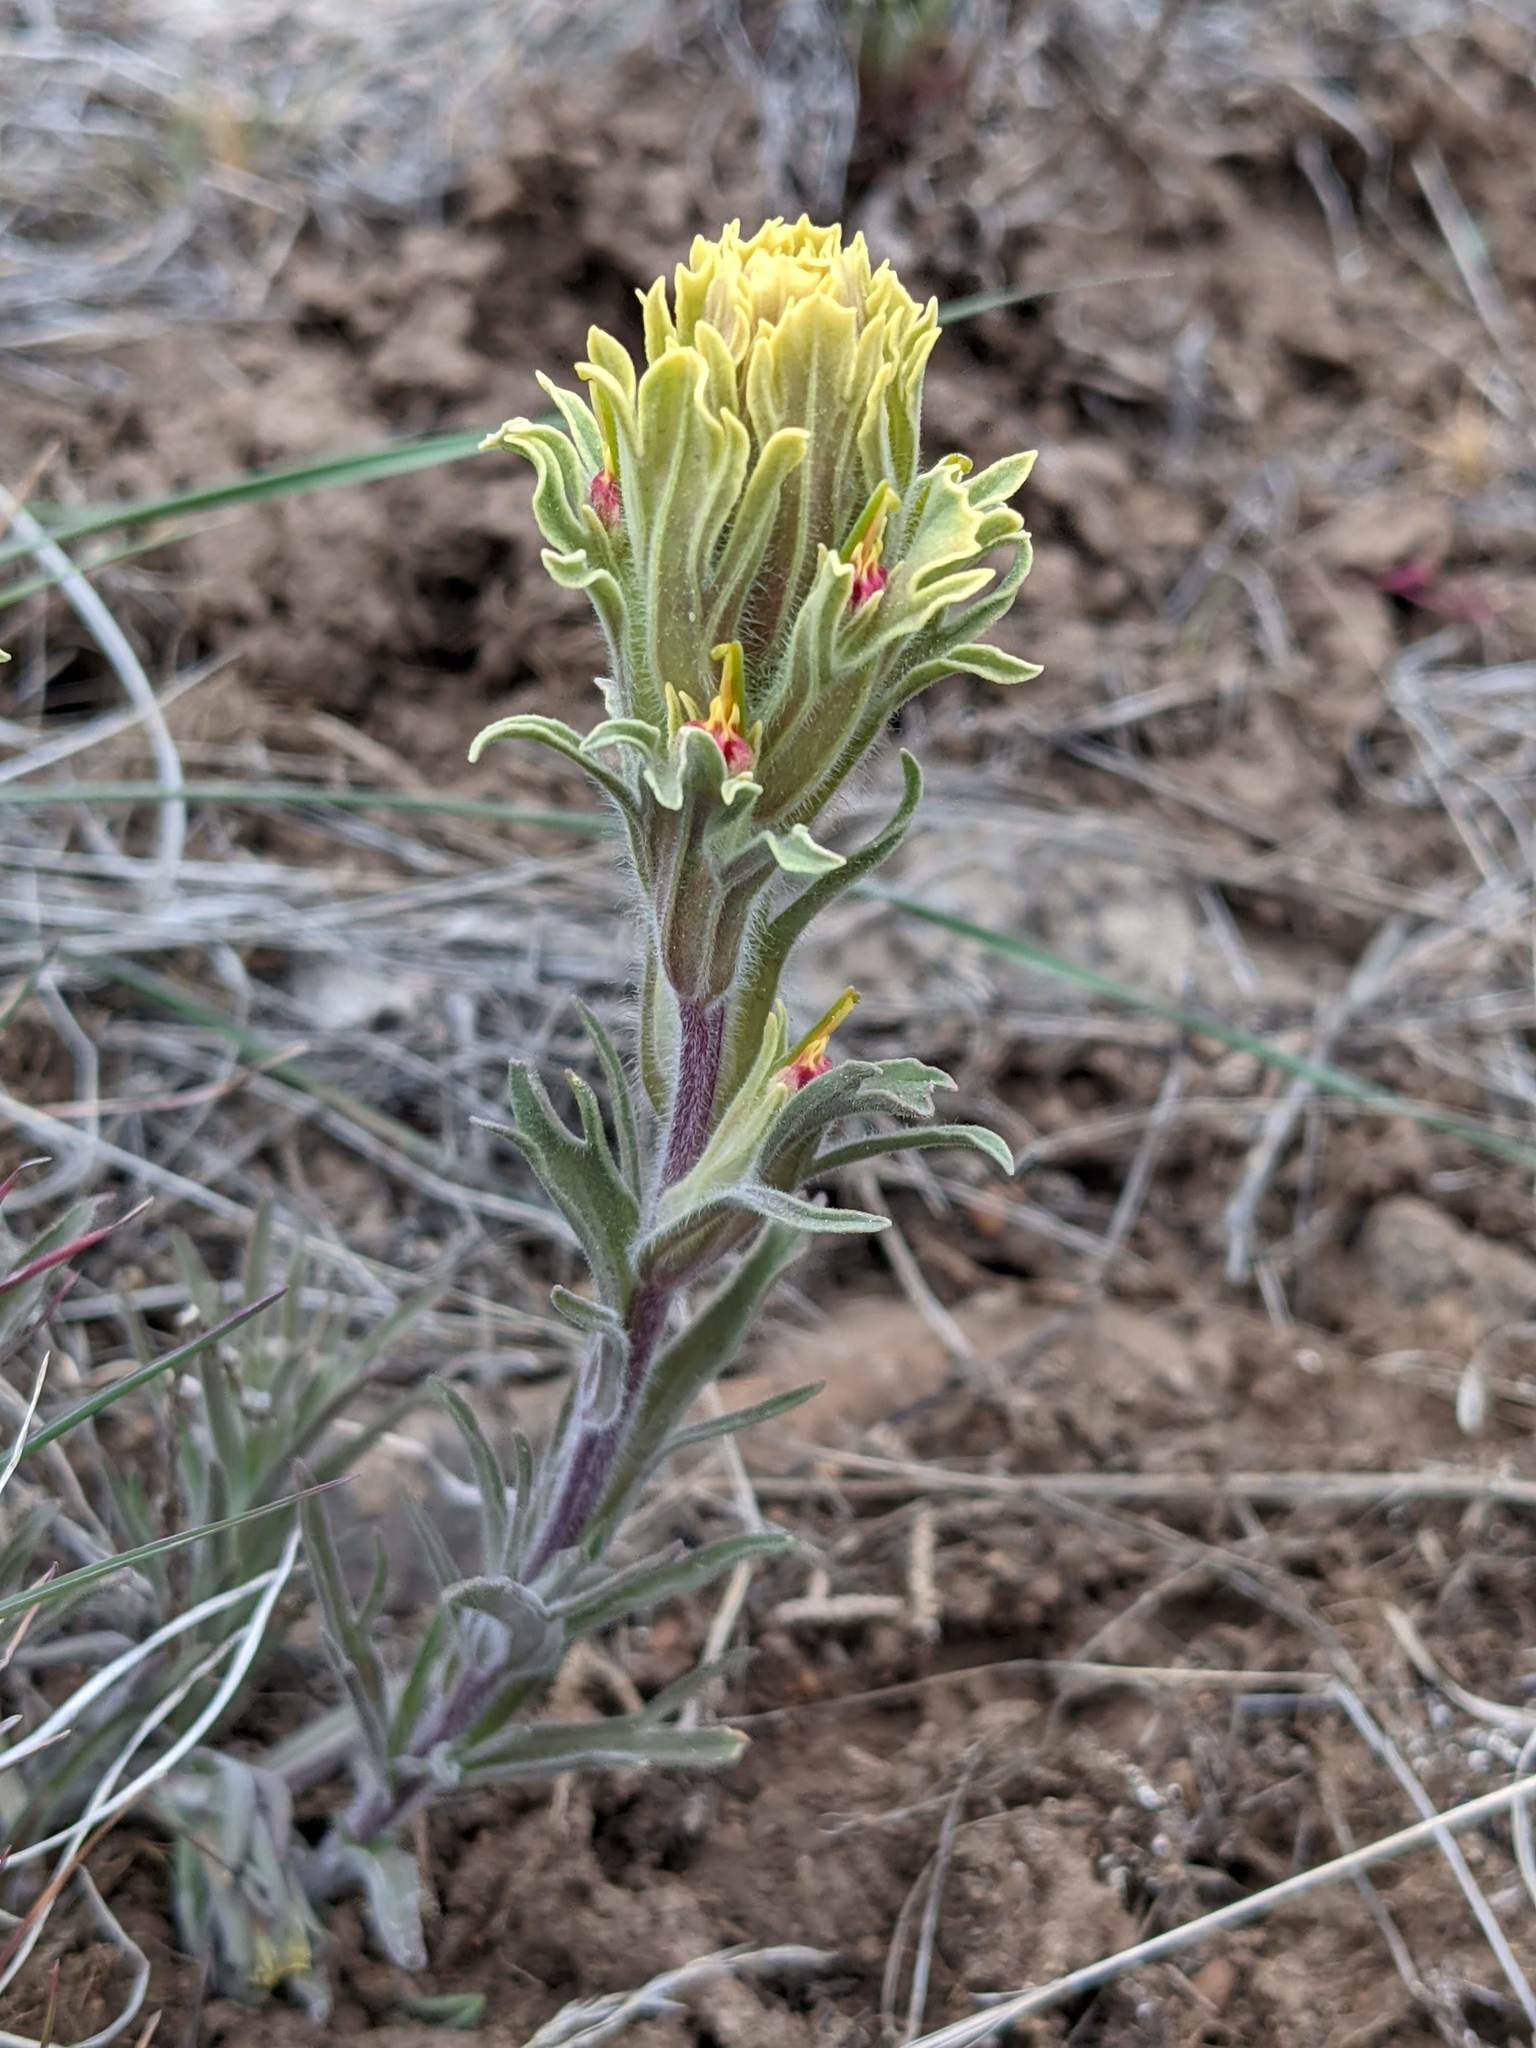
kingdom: Plantae
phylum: Tracheophyta
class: Magnoliopsida
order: Lamiales
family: Orobanchaceae
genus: Castilleja
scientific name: Castilleja pilosa
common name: Hairy paintbrush
